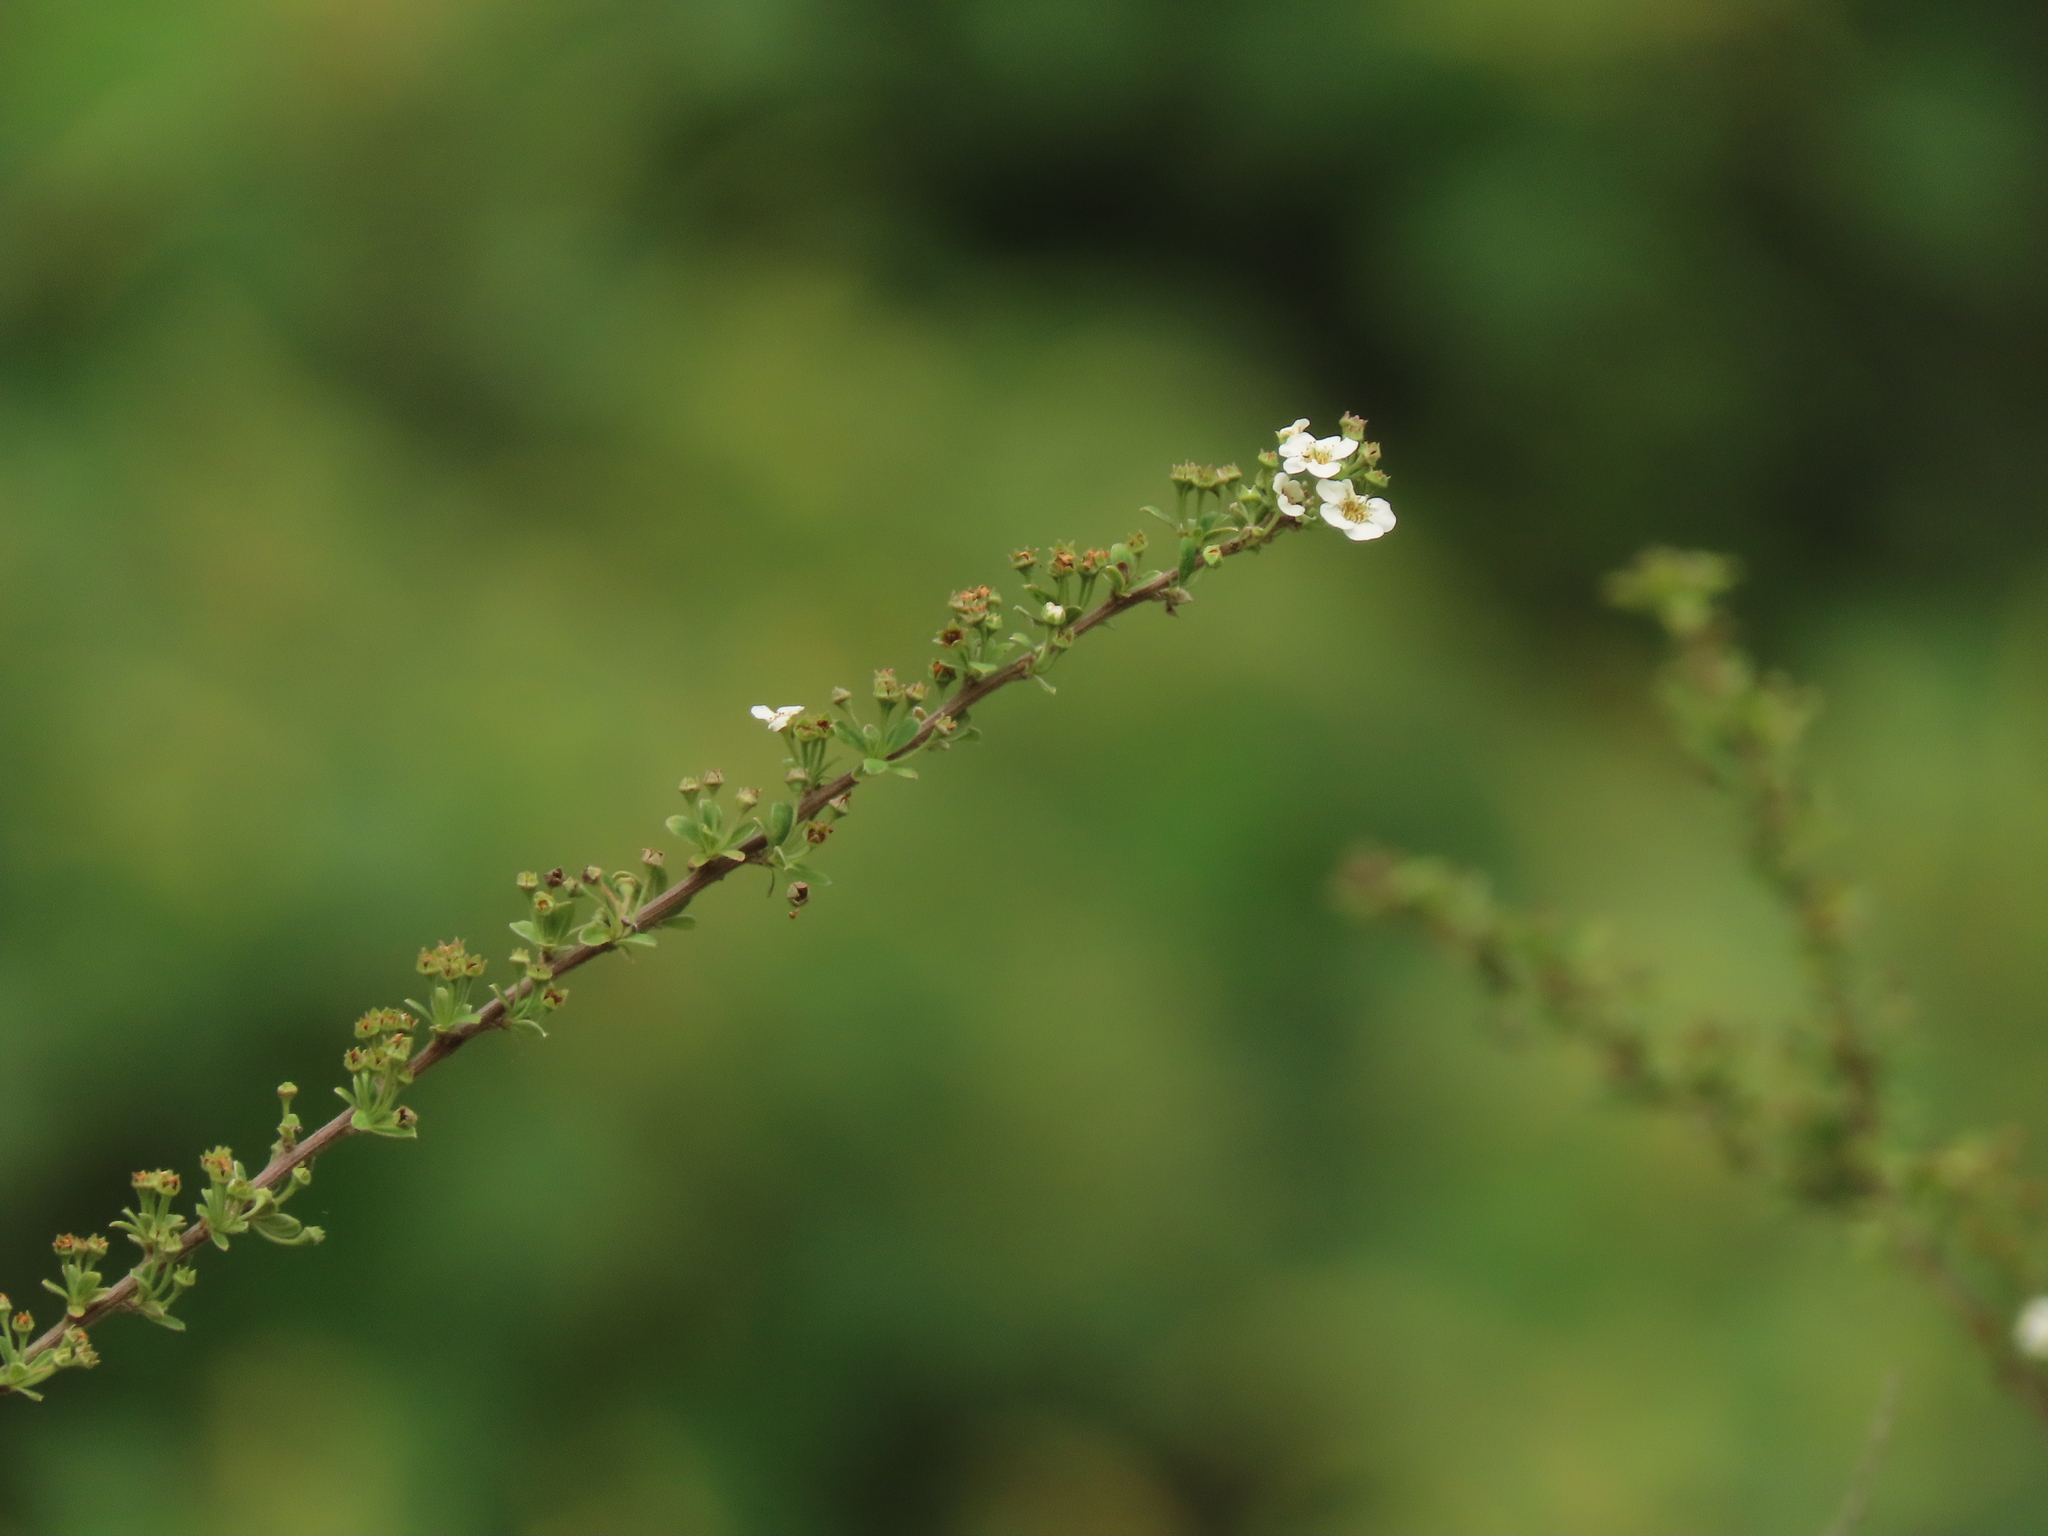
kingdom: Plantae
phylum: Tracheophyta
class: Magnoliopsida
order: Rosales
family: Rosaceae
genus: Spiraea
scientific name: Spiraea prunifolia
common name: Bridal-wreath spiraea
